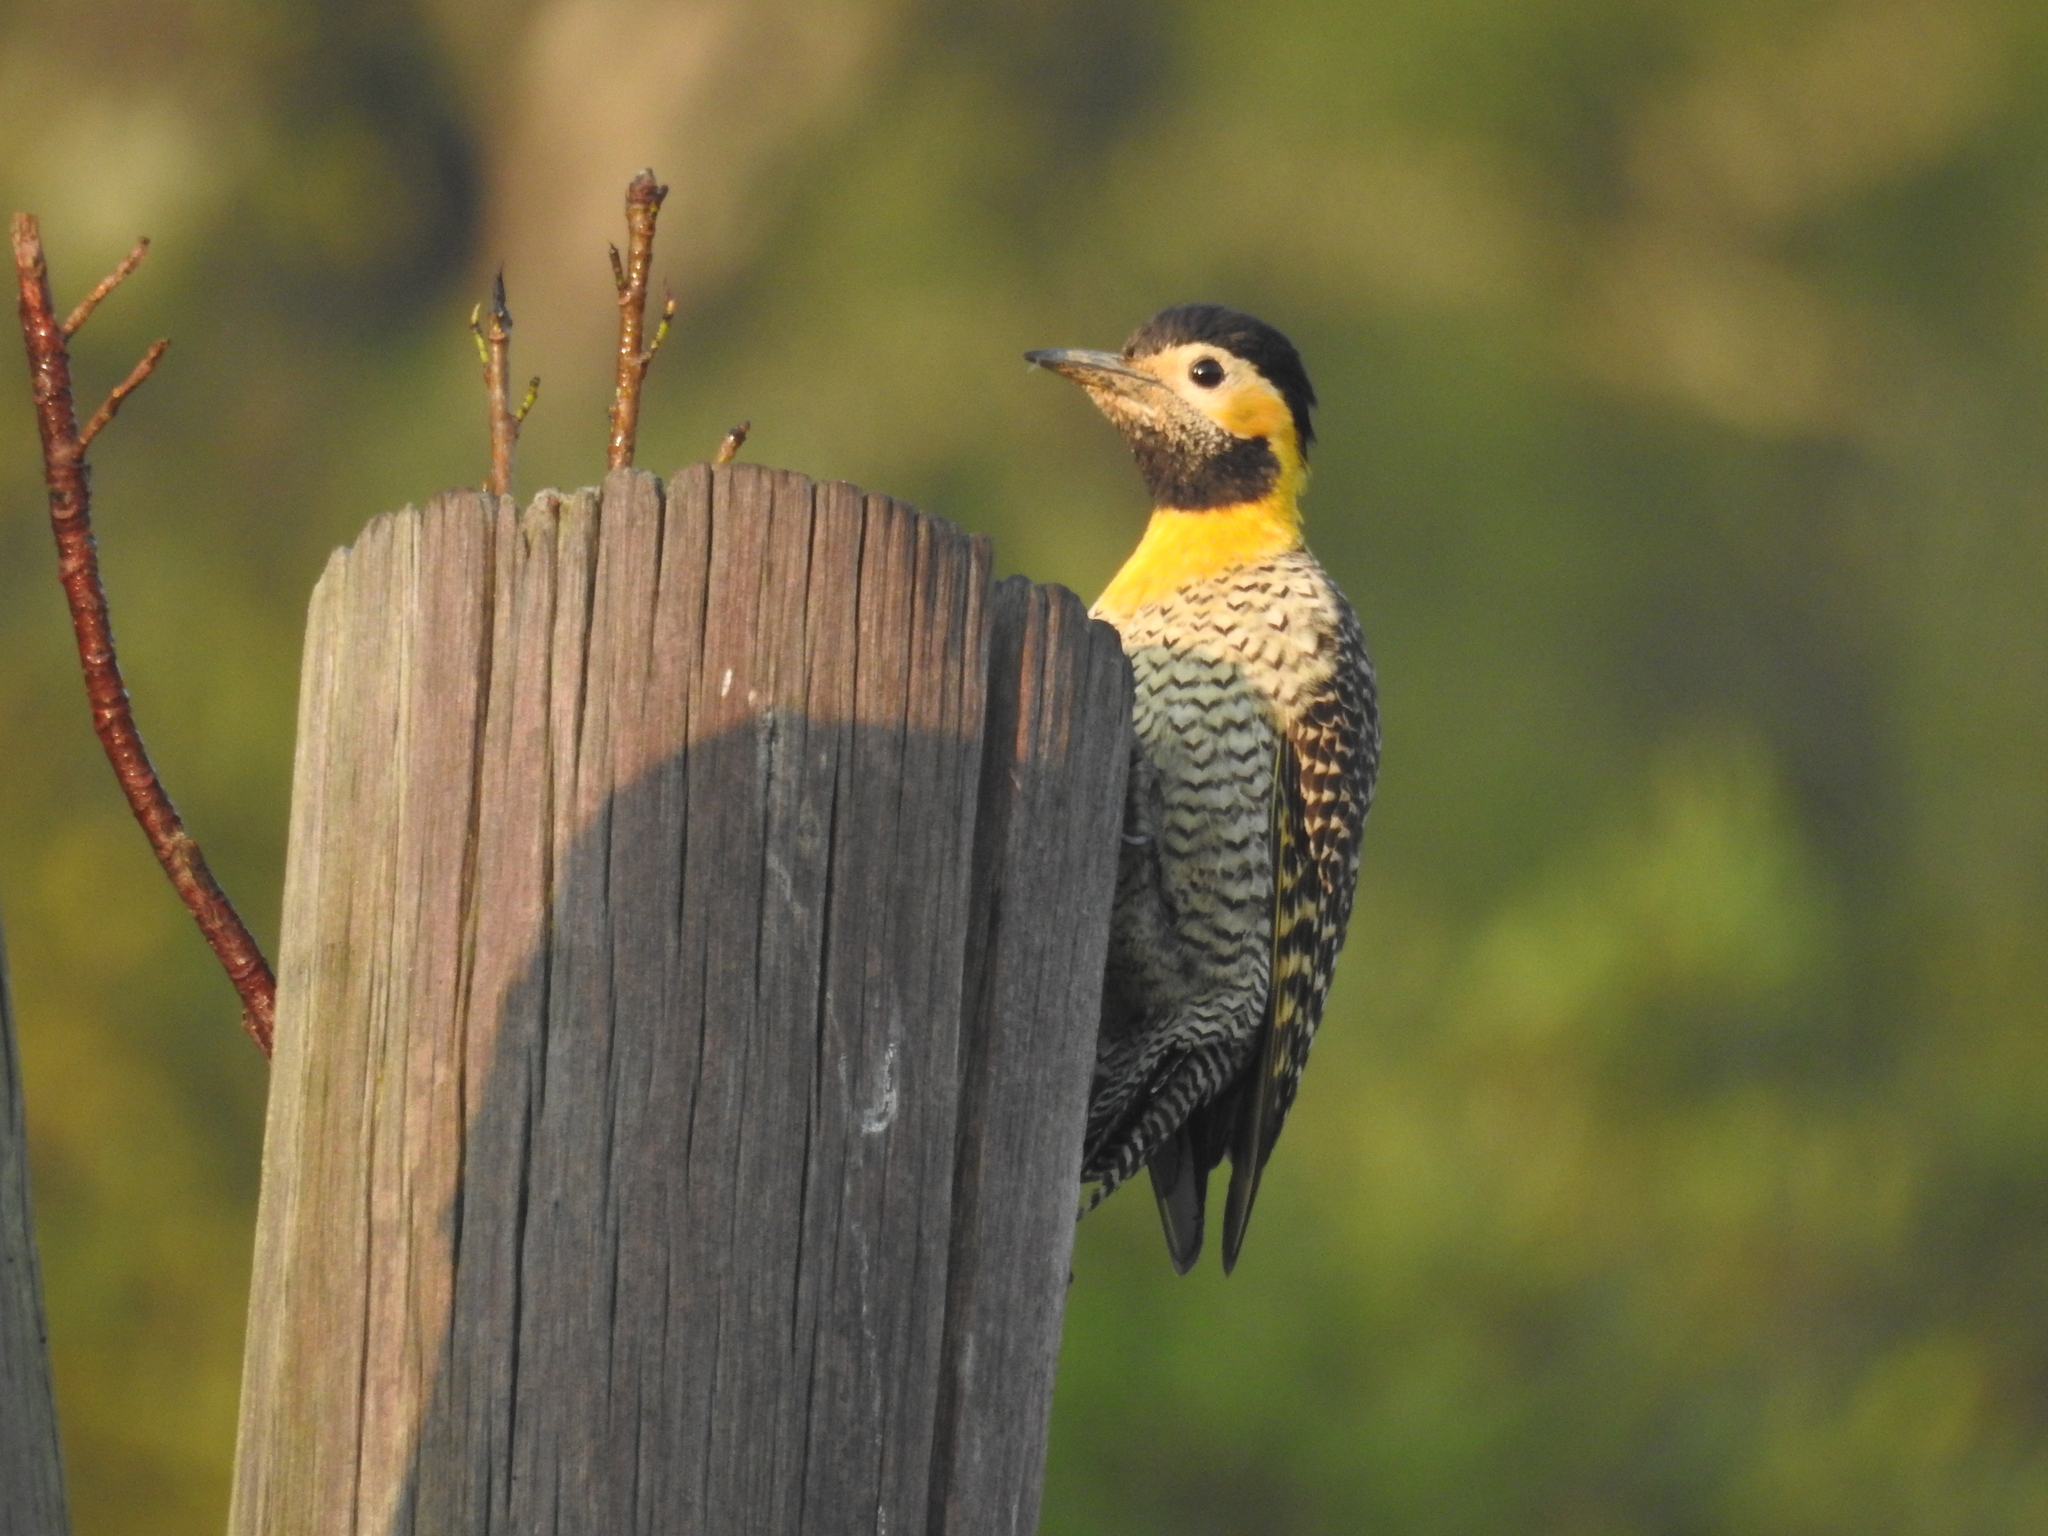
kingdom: Animalia
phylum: Chordata
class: Aves
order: Piciformes
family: Picidae
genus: Colaptes
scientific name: Colaptes campestris
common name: Campo flicker
